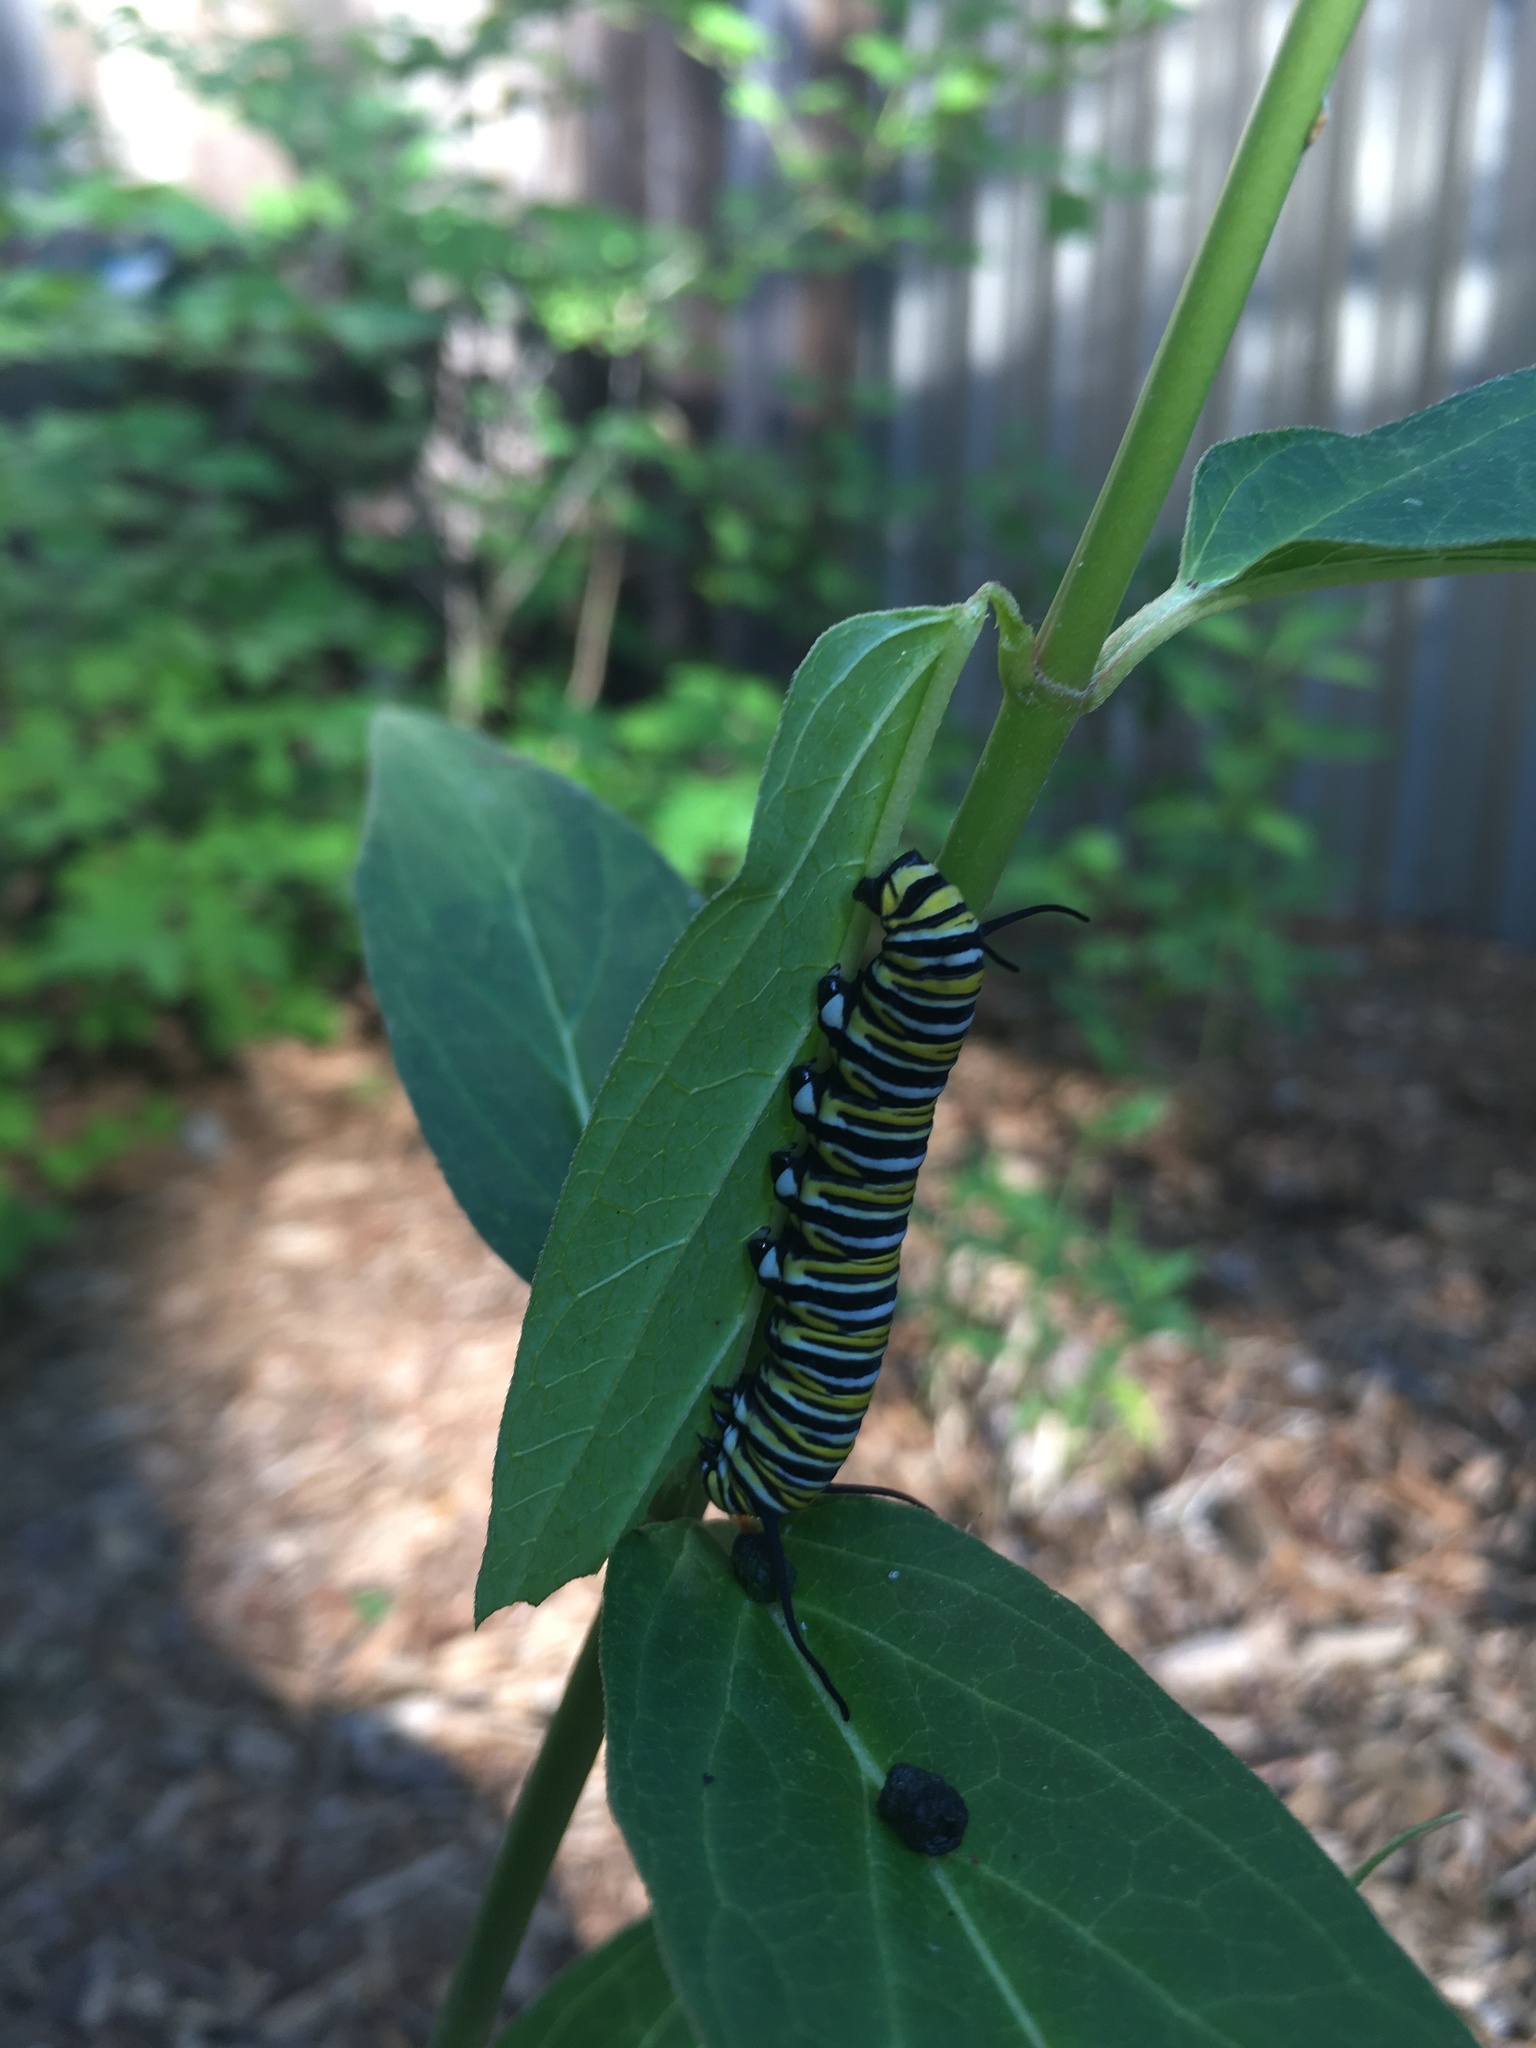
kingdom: Animalia
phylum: Arthropoda
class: Insecta
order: Lepidoptera
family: Nymphalidae
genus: Danaus
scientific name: Danaus plexippus
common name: Monarch
